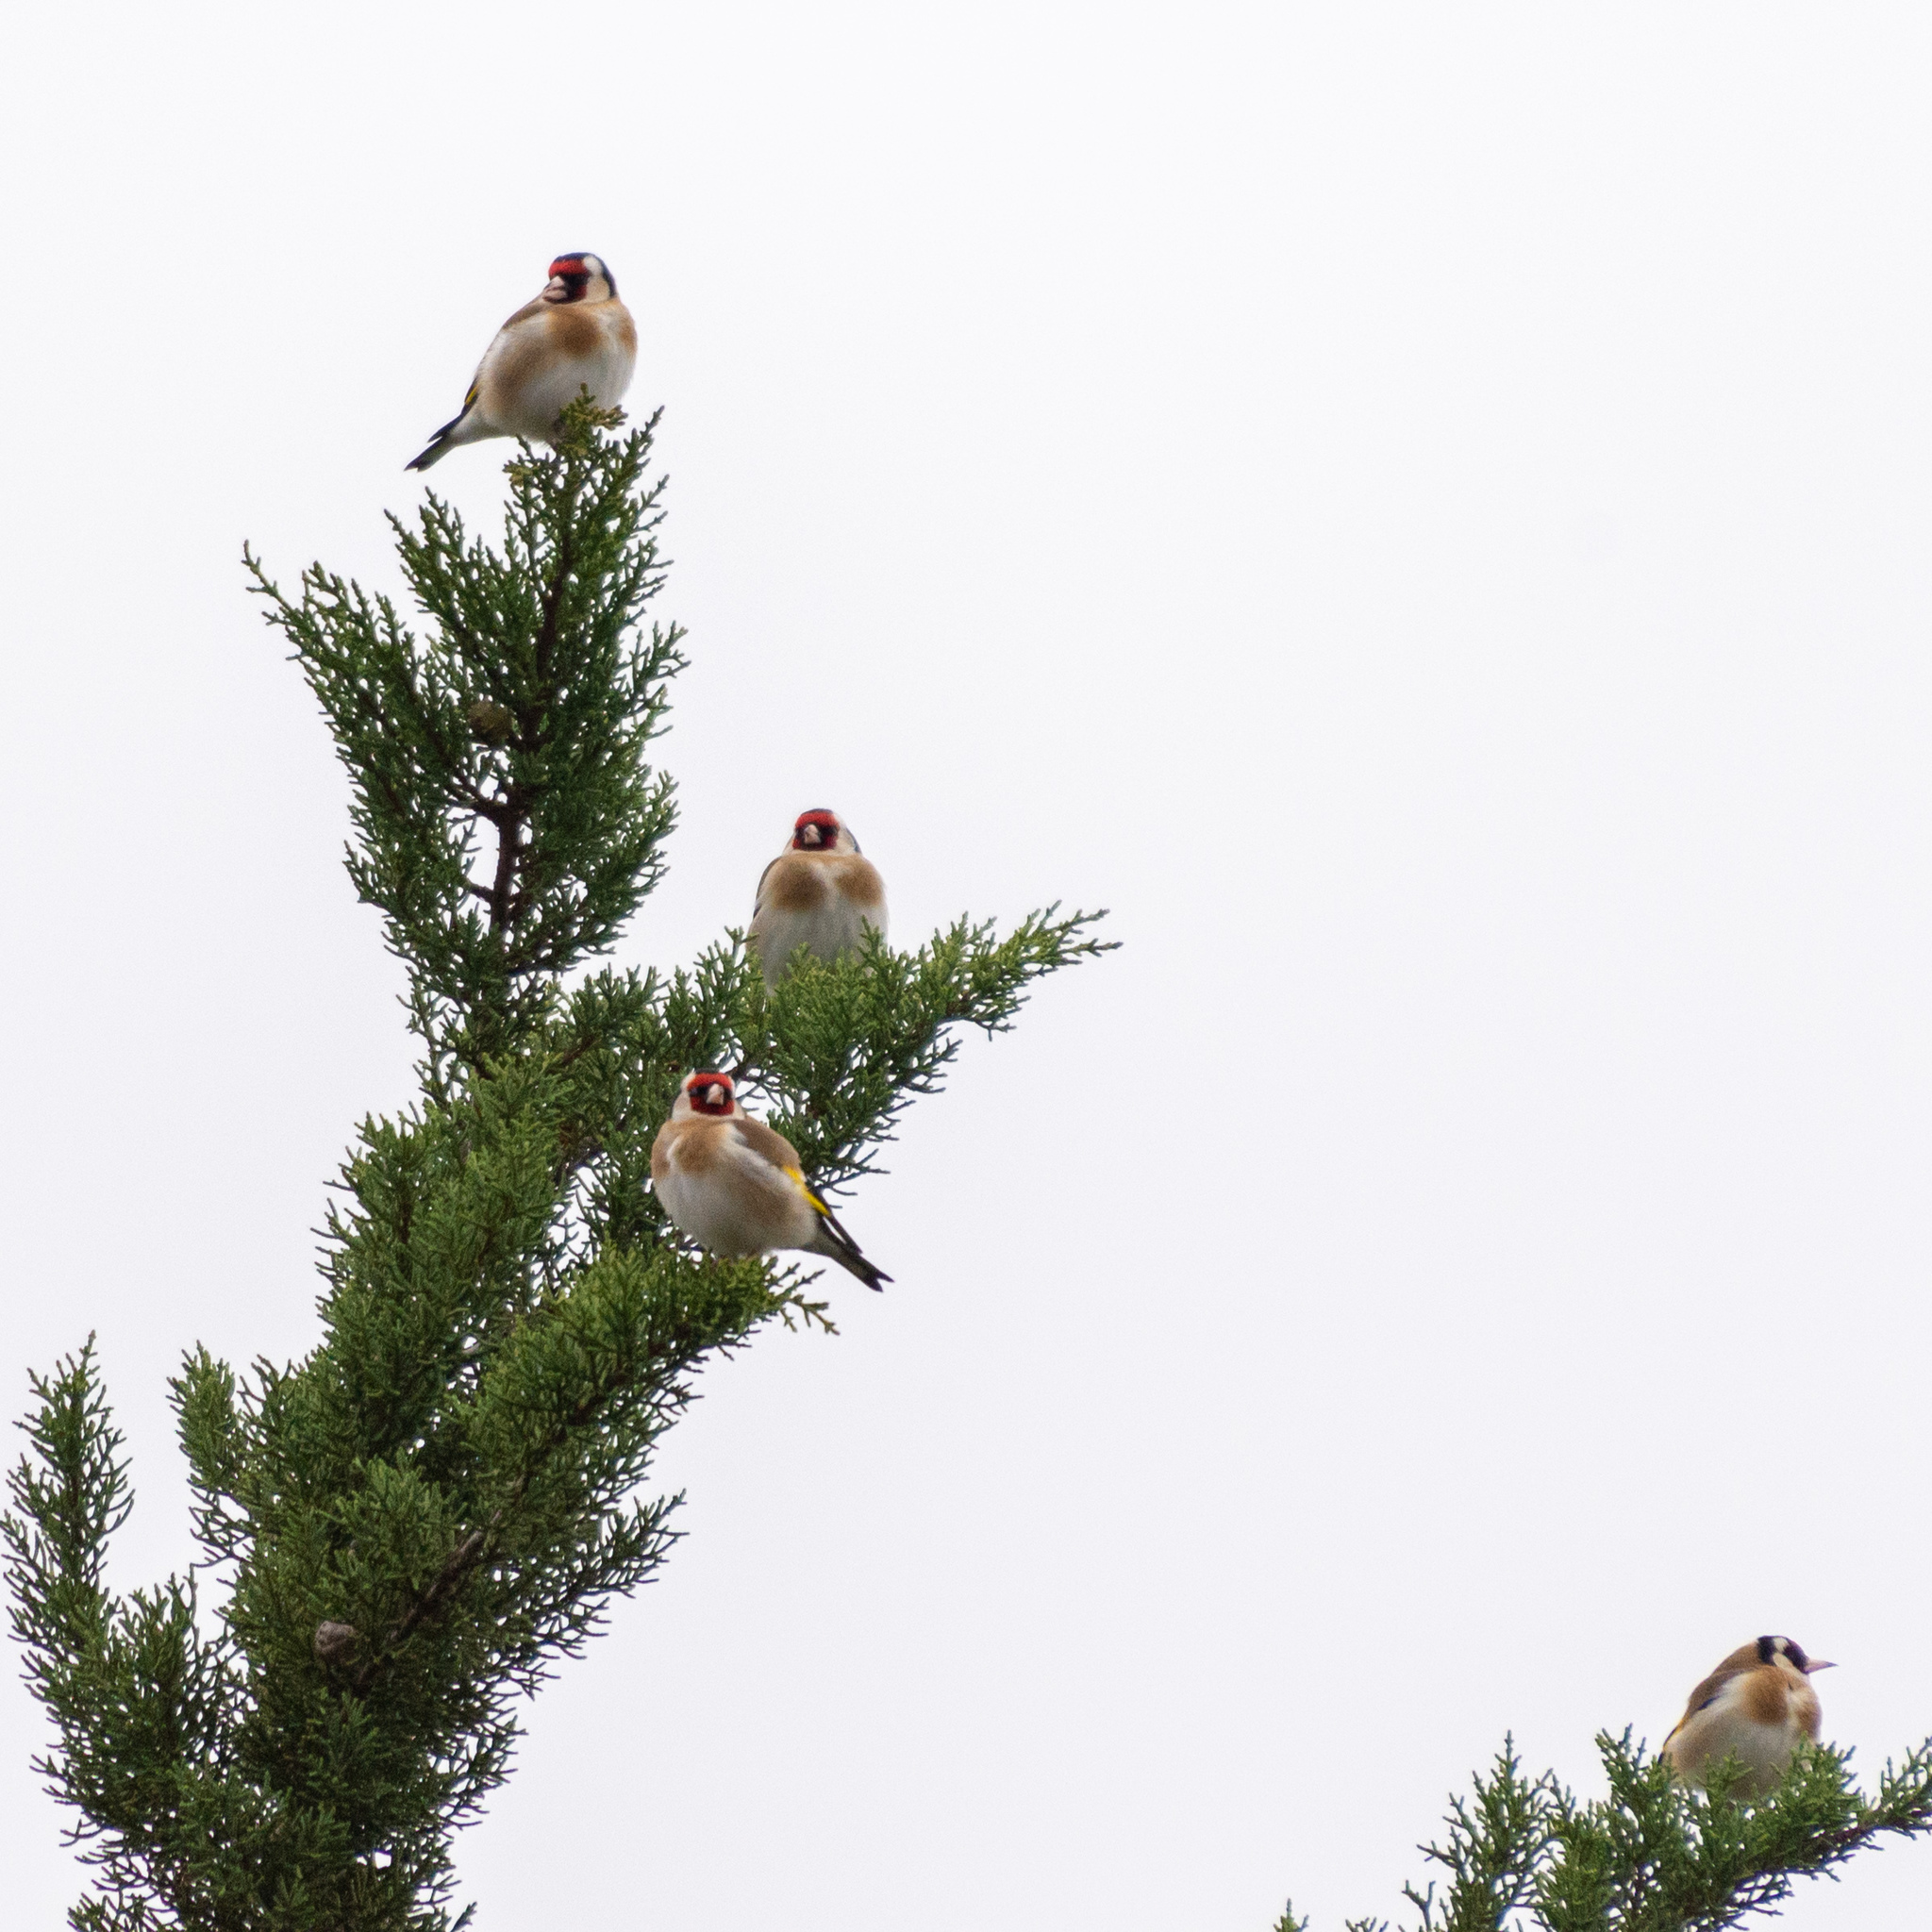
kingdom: Animalia
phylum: Chordata
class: Aves
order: Passeriformes
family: Fringillidae
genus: Carduelis
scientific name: Carduelis carduelis
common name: European goldfinch
